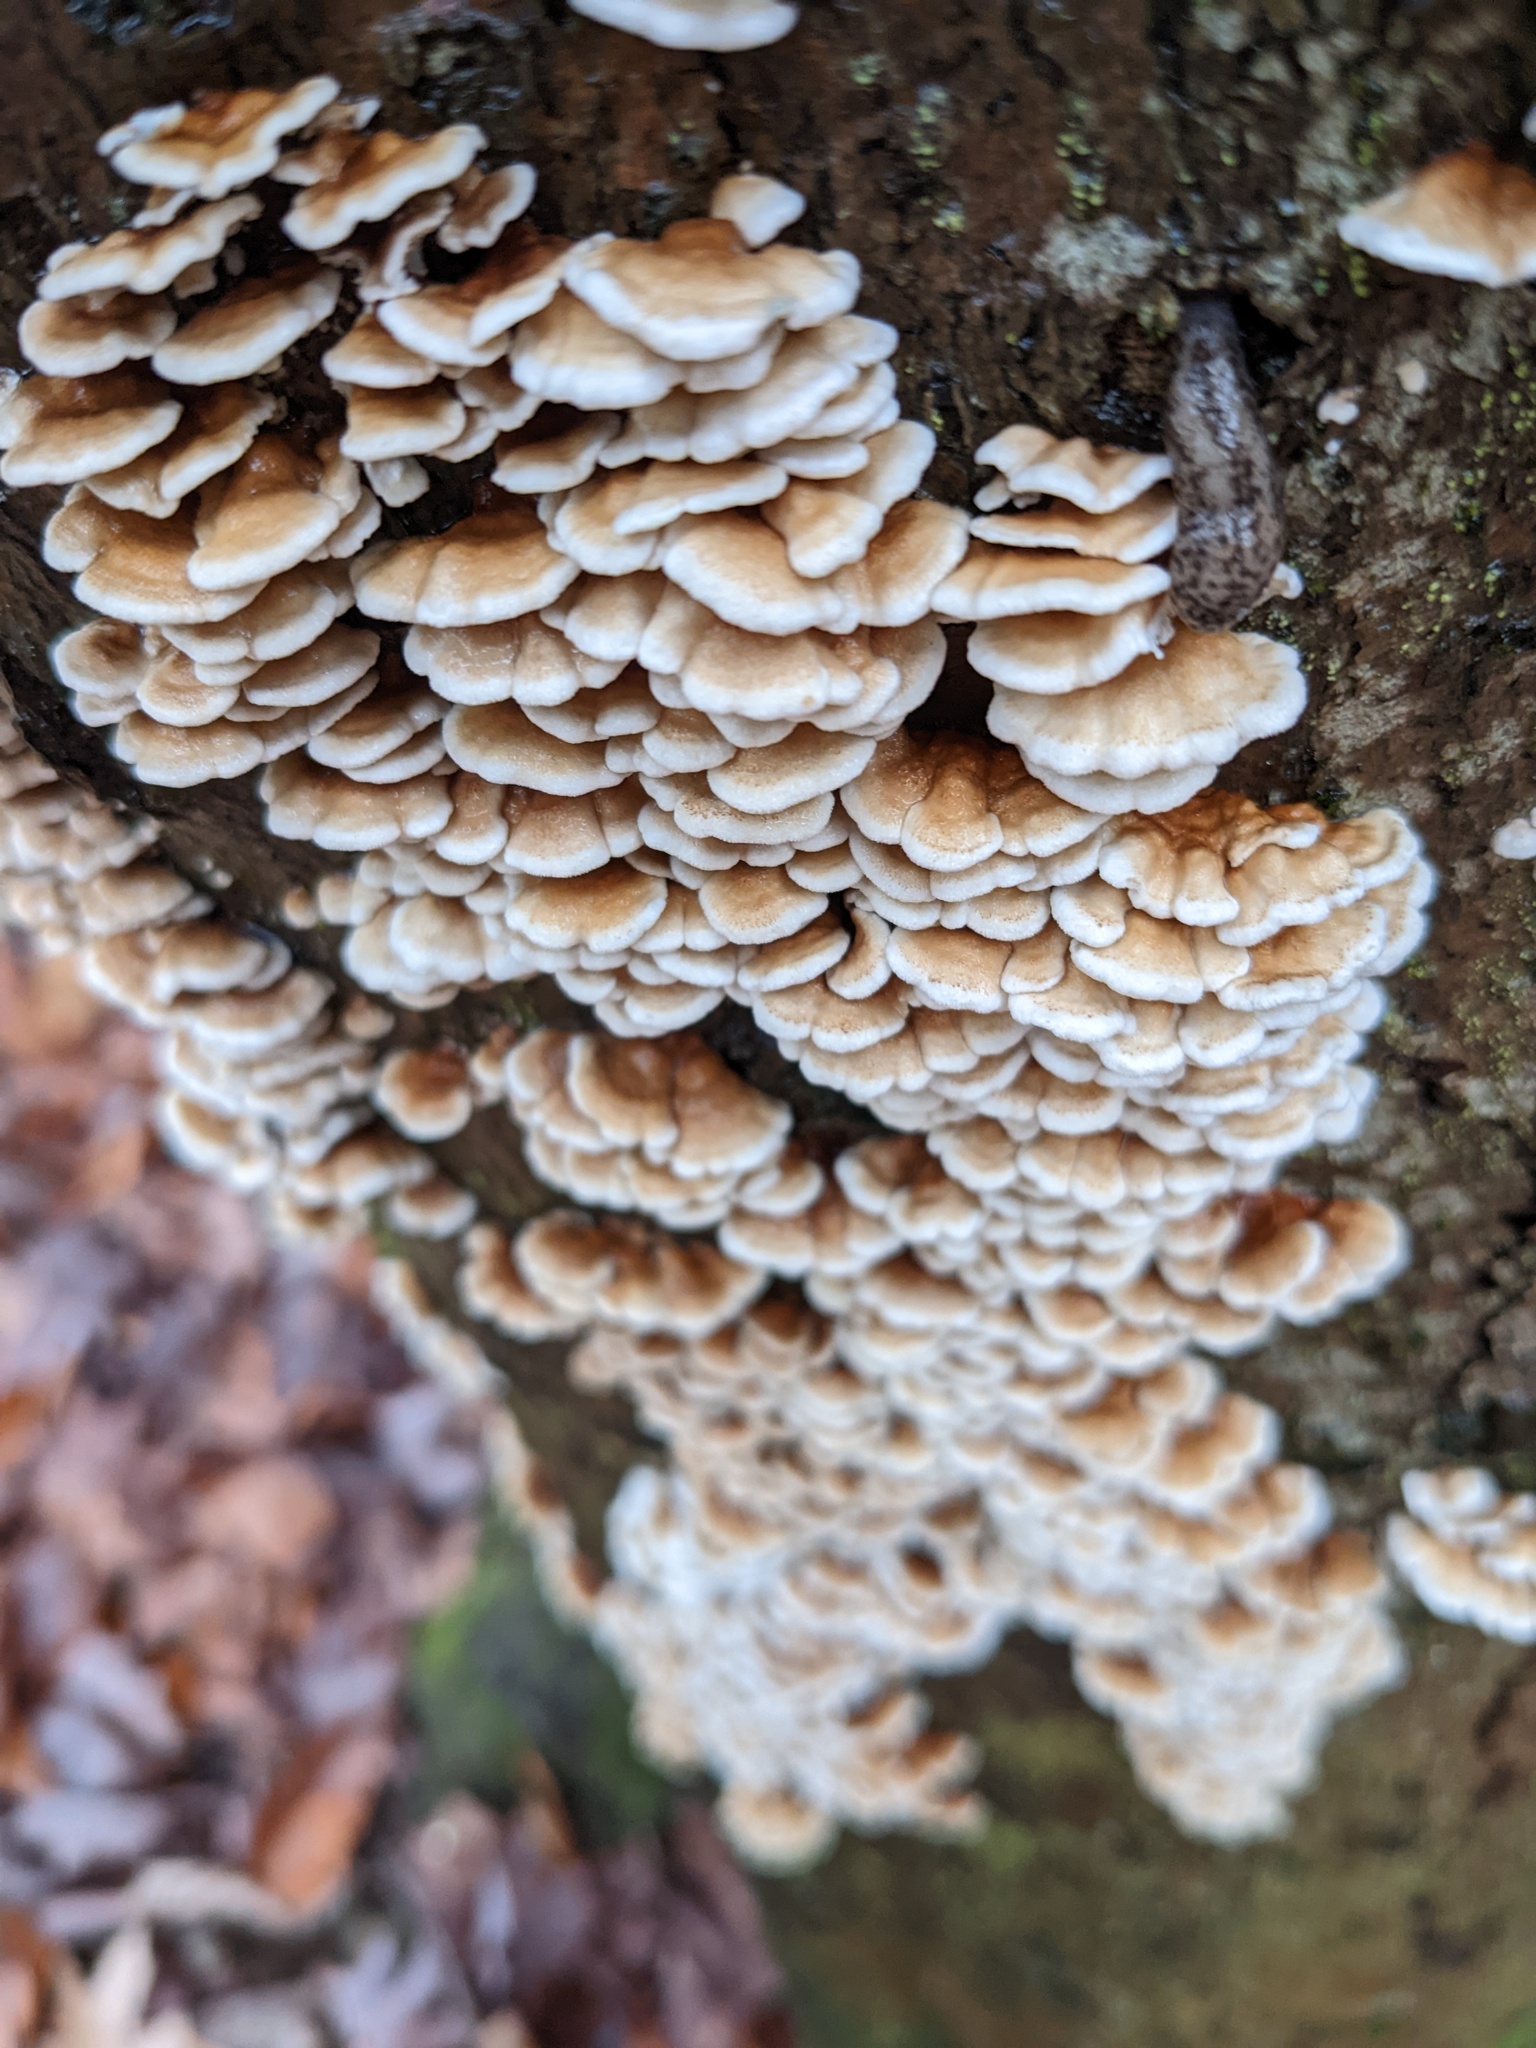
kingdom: Fungi
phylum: Basidiomycota
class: Agaricomycetes
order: Amylocorticiales
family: Amylocorticiaceae
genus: Plicaturopsis
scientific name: Plicaturopsis crispa
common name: Crimped gill
